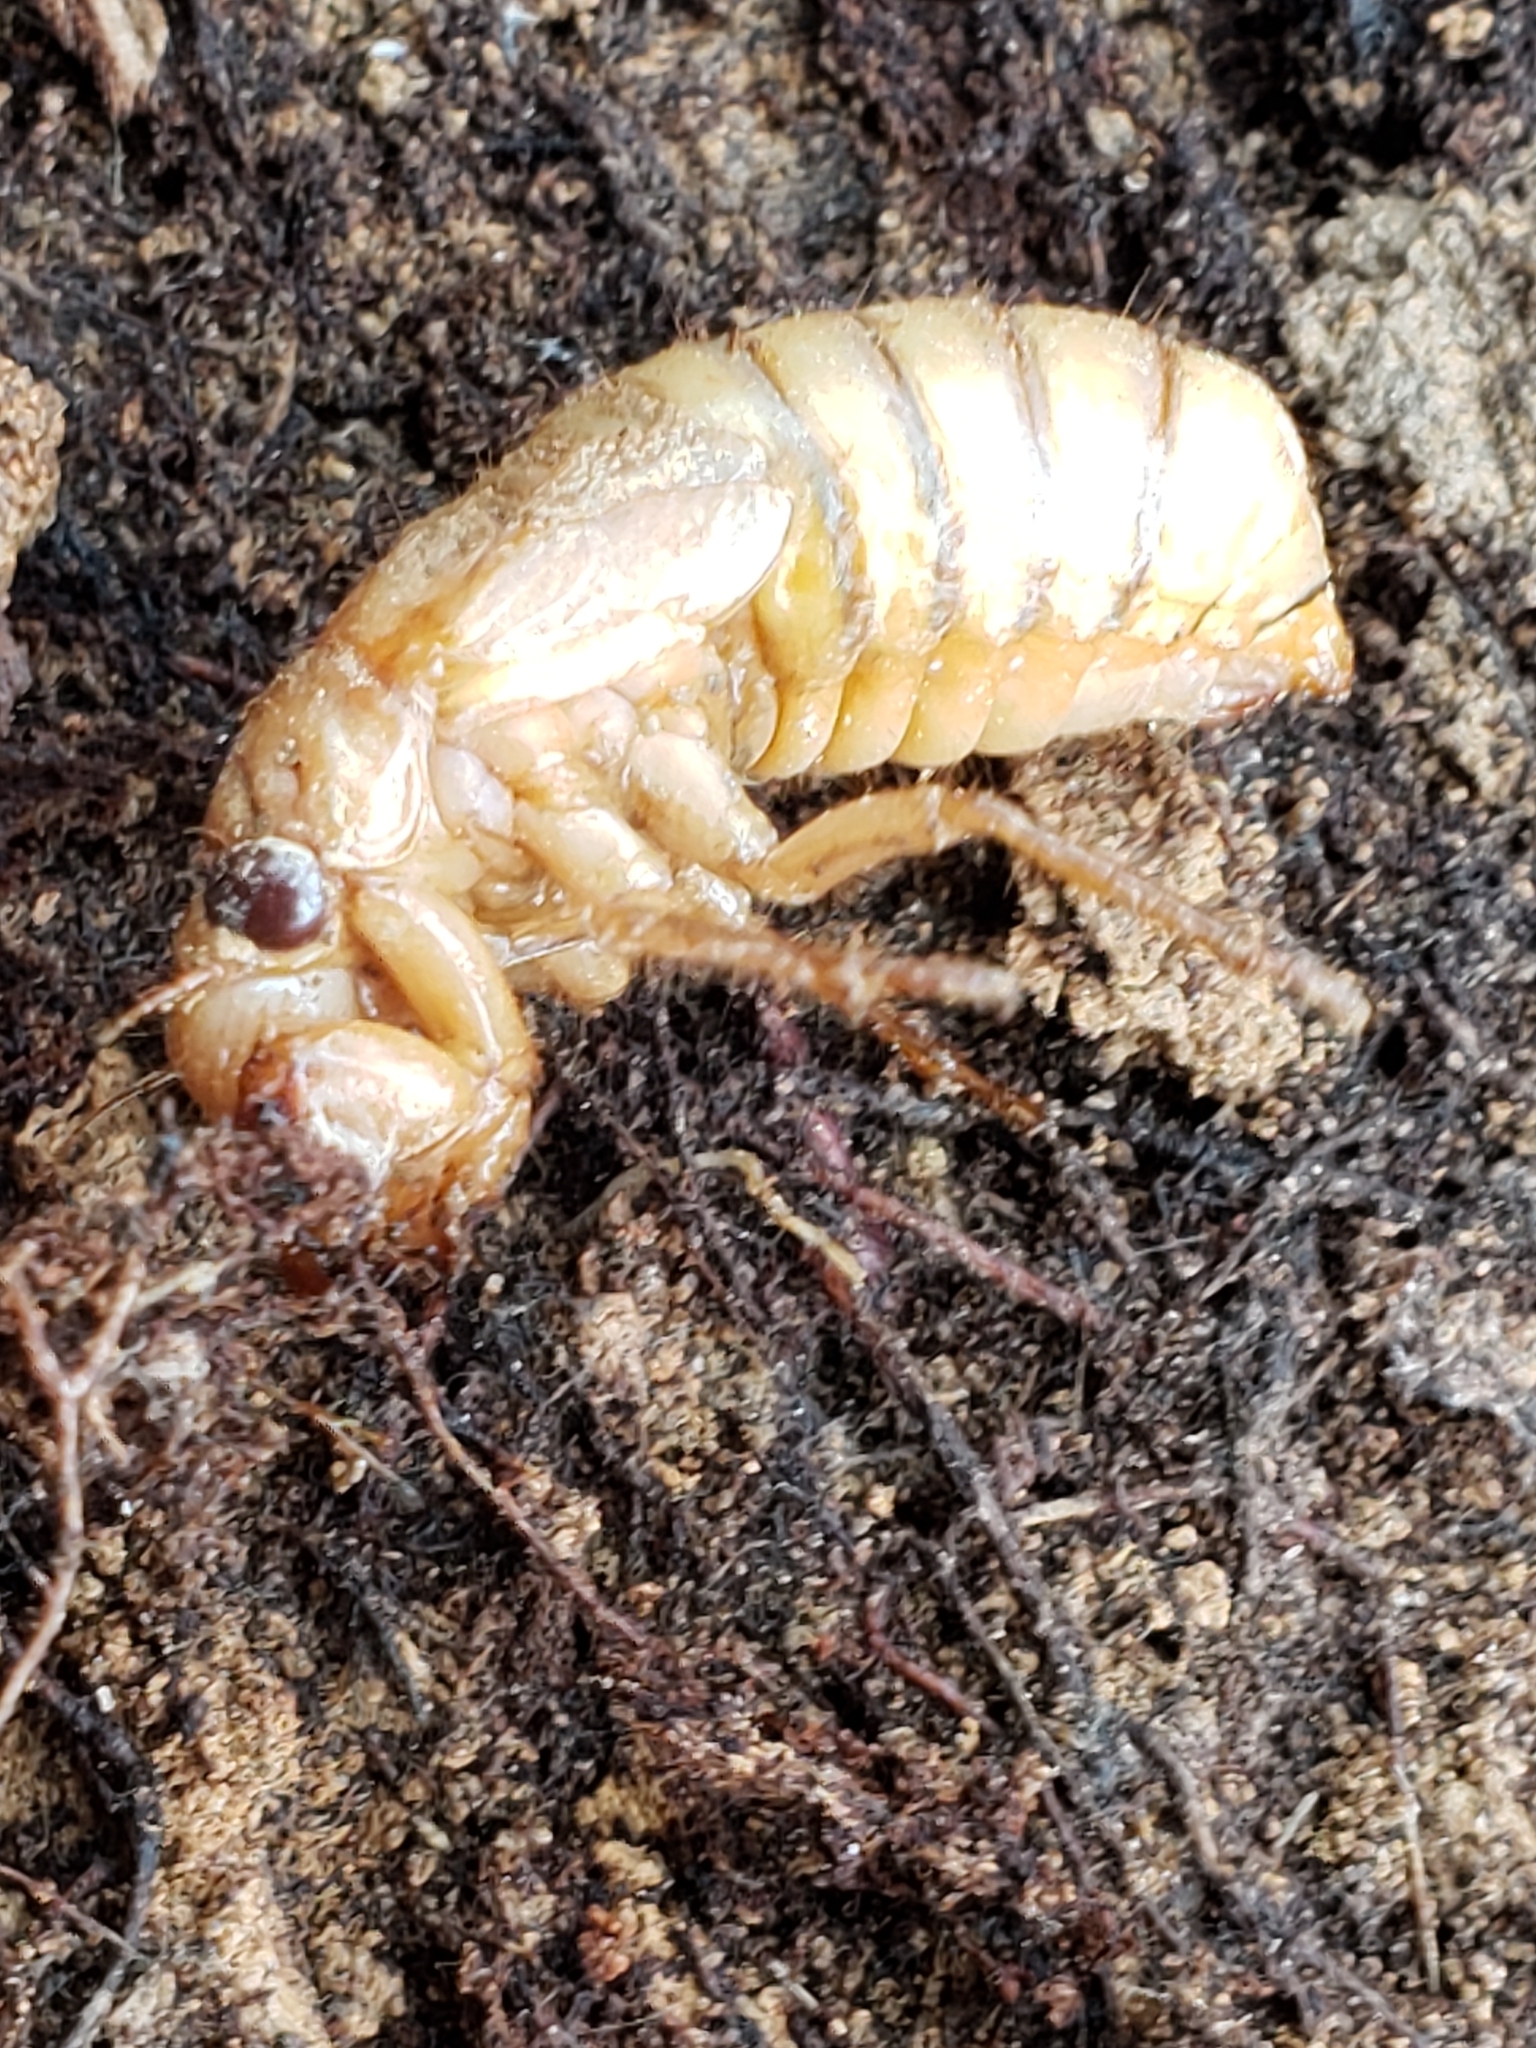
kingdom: Animalia
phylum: Arthropoda
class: Insecta
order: Hemiptera
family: Cicadidae
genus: Magicicada
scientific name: Magicicada
